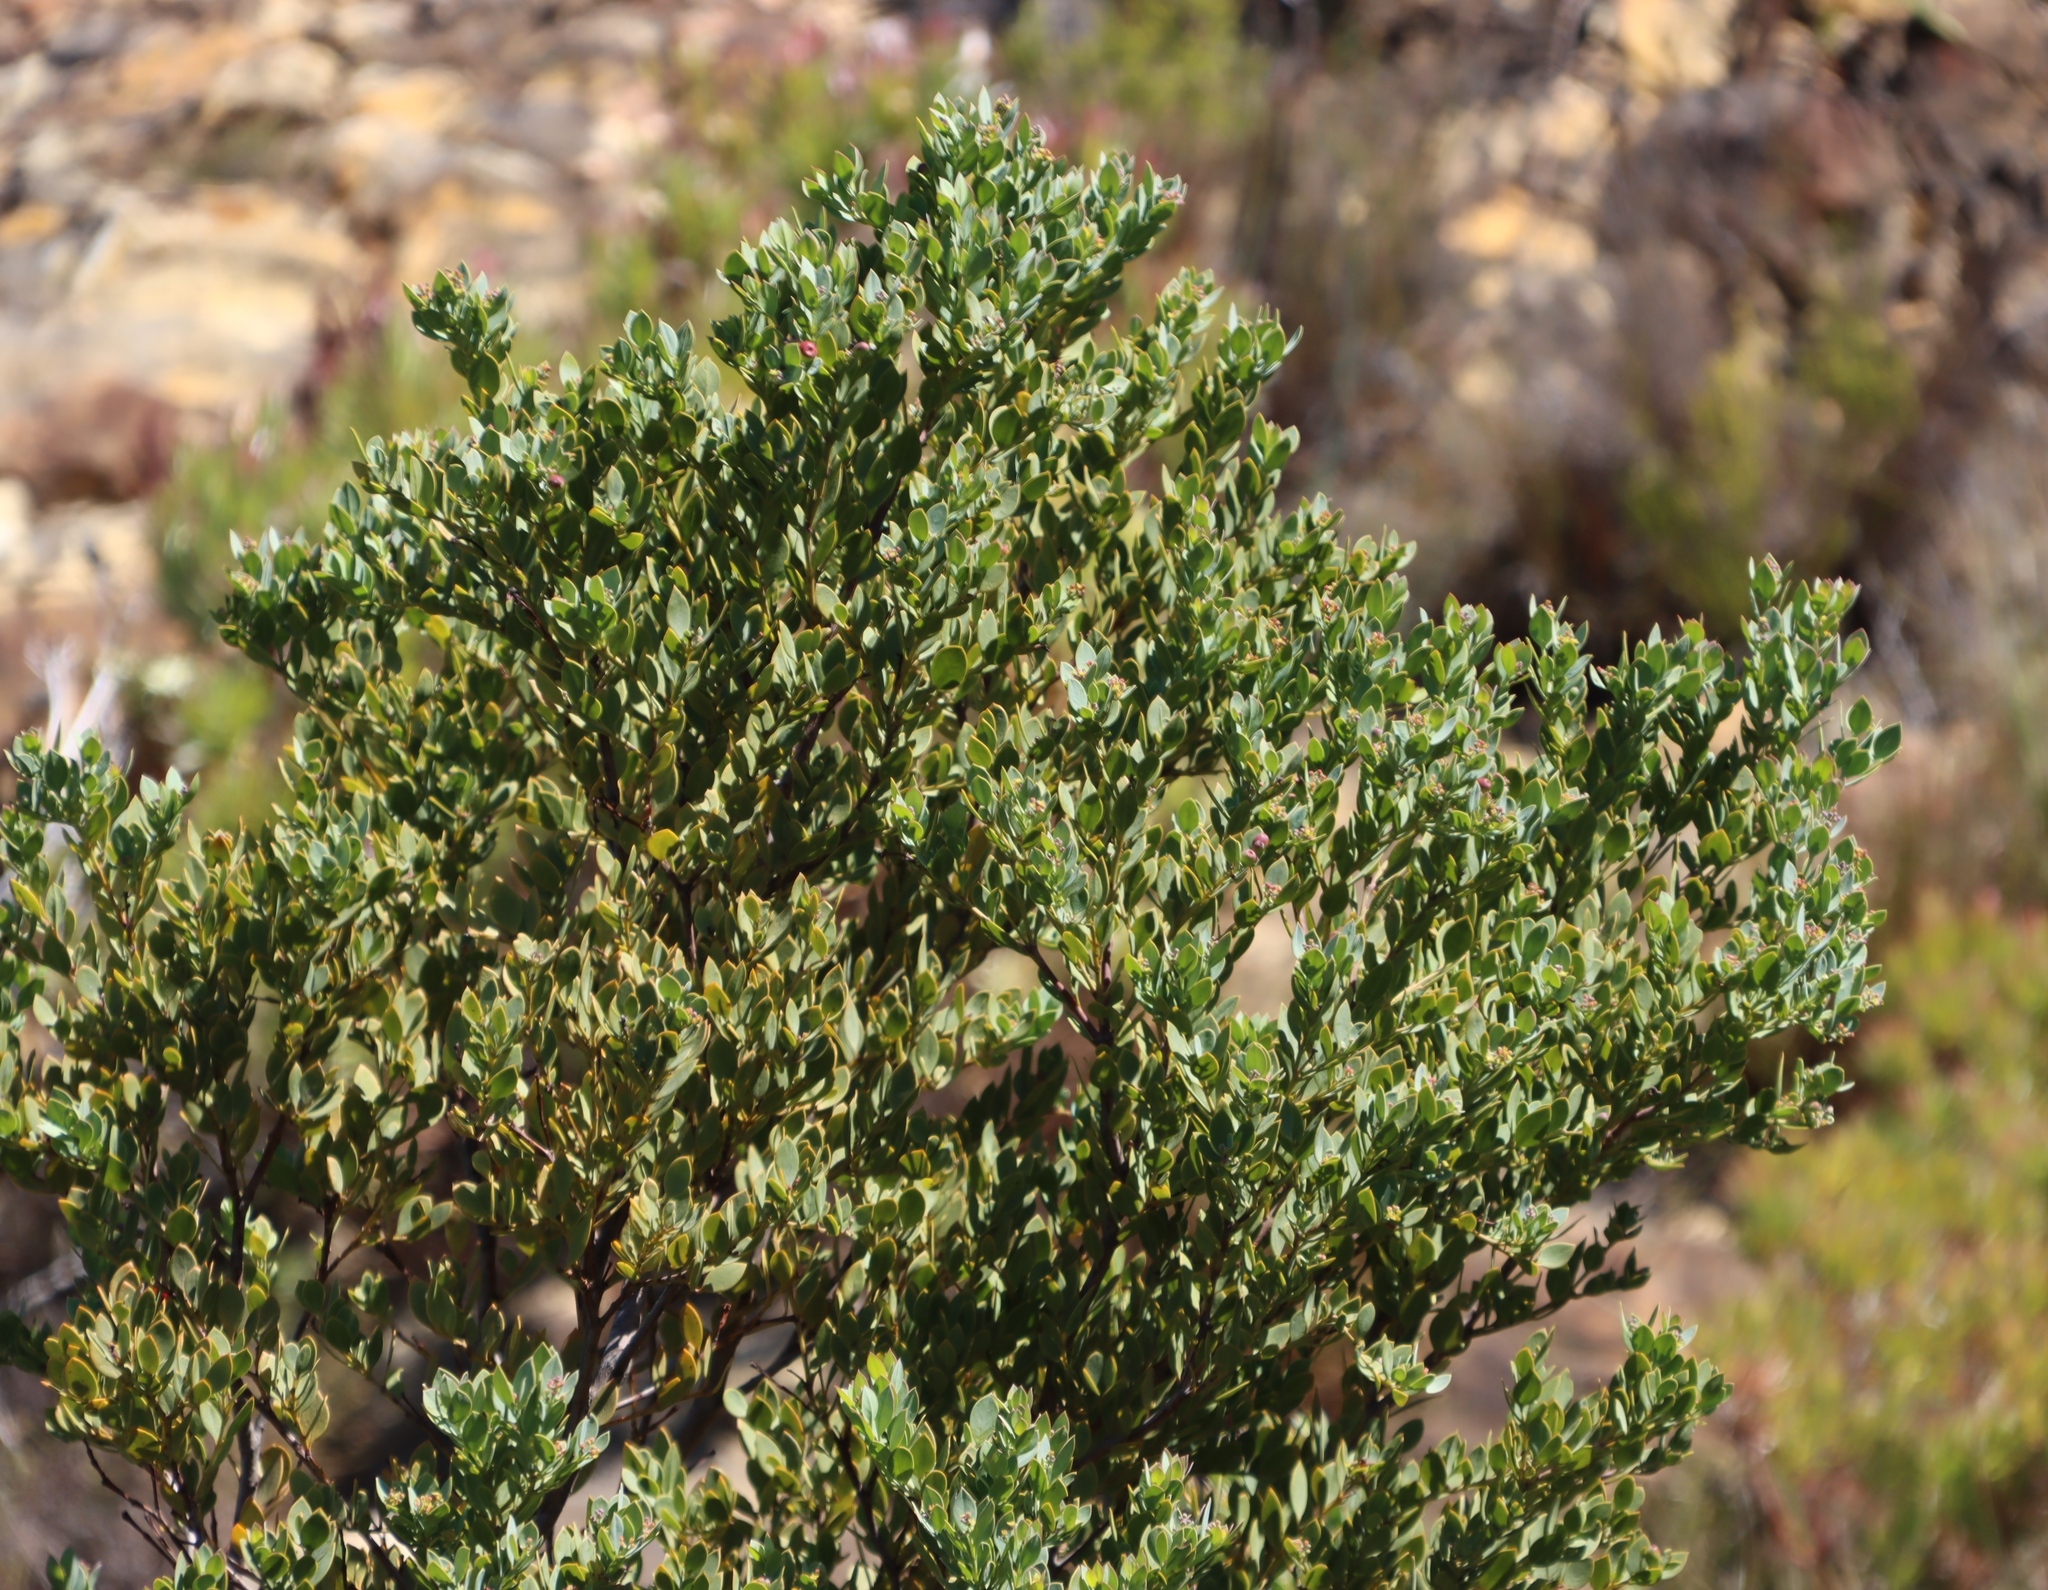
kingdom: Plantae
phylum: Tracheophyta
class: Magnoliopsida
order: Santalales
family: Santalaceae
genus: Osyris
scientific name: Osyris compressa
